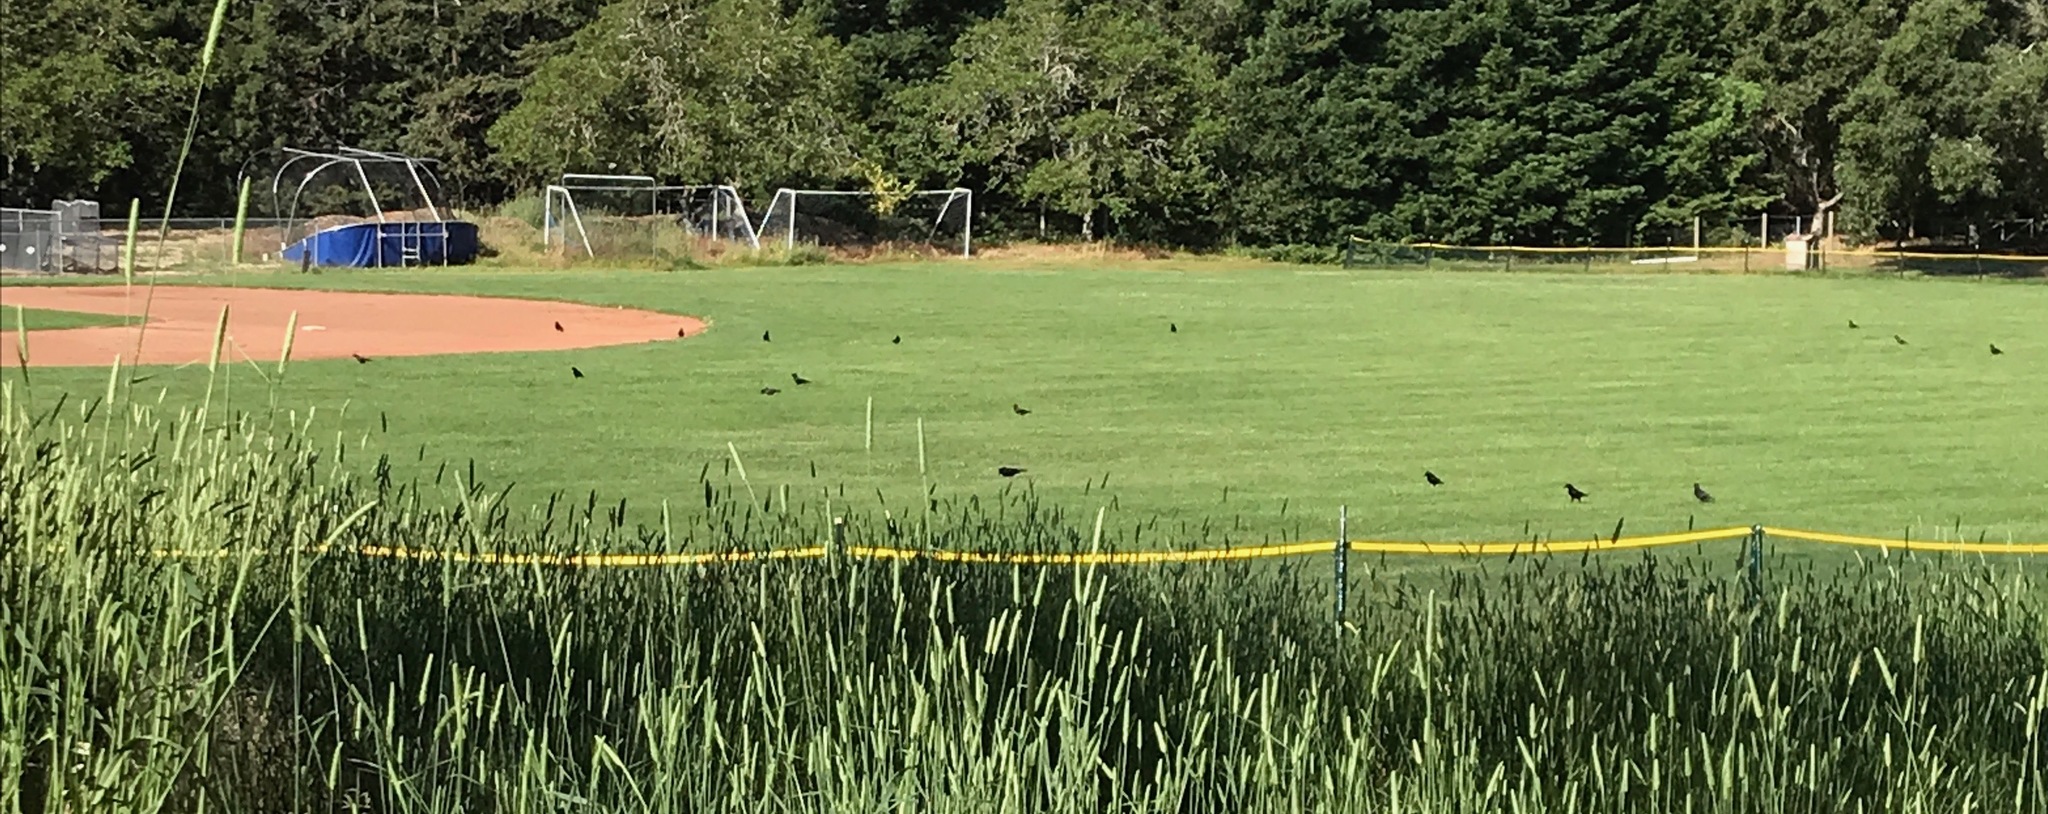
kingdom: Animalia
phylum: Chordata
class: Aves
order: Passeriformes
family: Corvidae
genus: Corvus
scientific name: Corvus brachyrhynchos
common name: American crow
